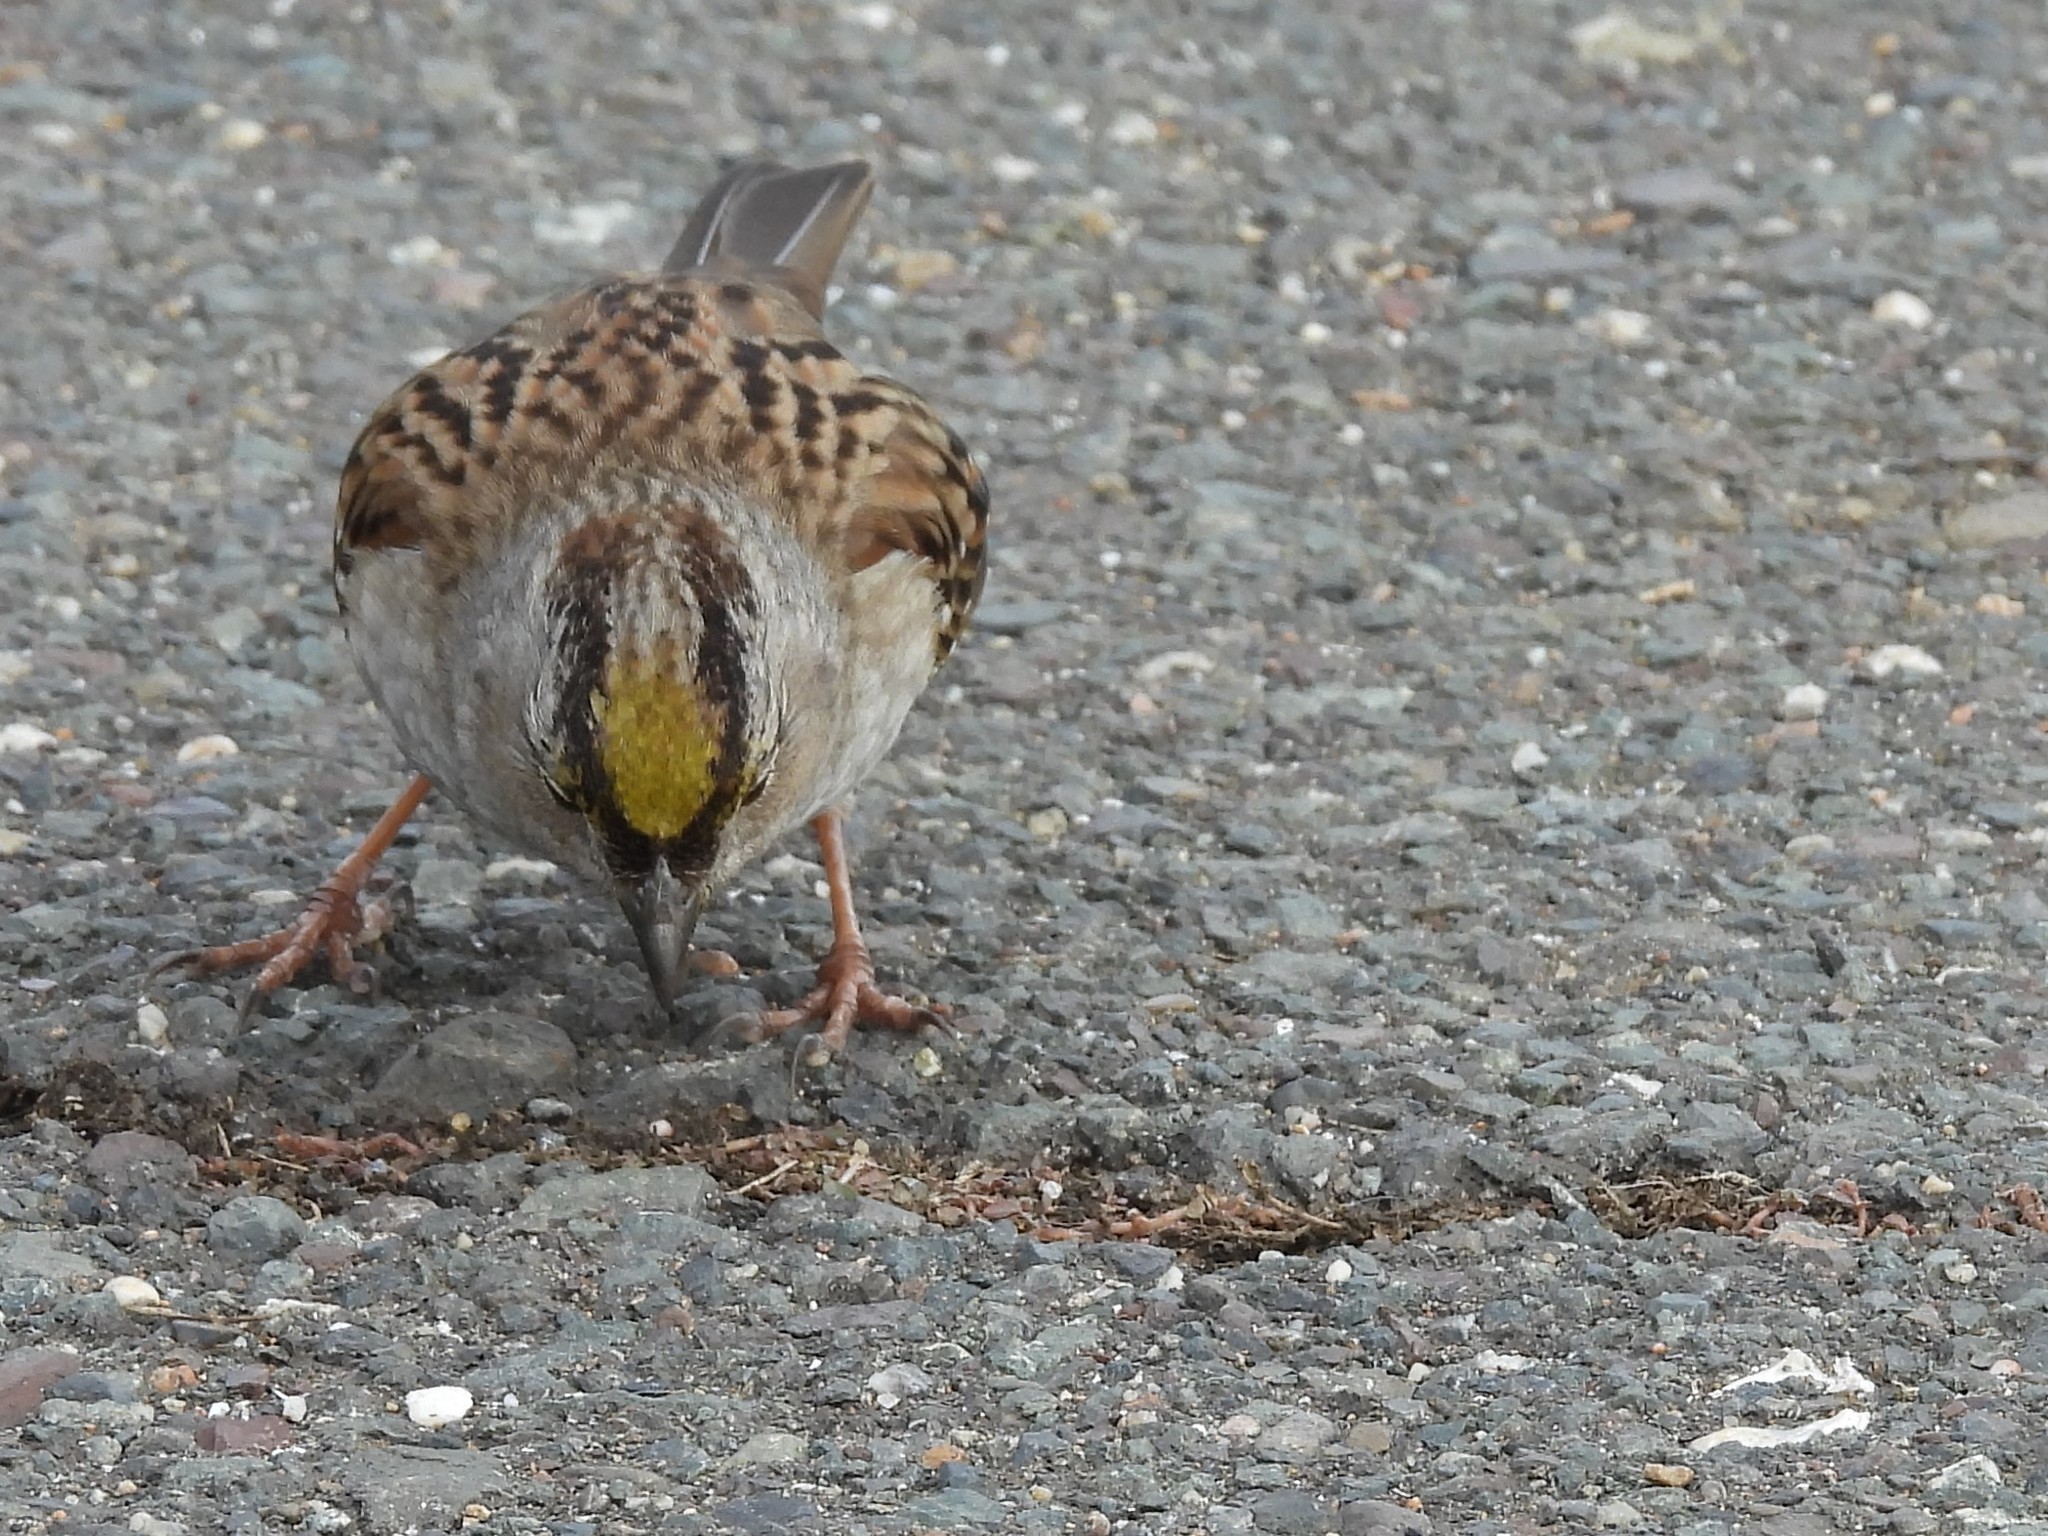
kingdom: Animalia
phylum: Chordata
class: Aves
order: Passeriformes
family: Passerellidae
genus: Zonotrichia
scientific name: Zonotrichia atricapilla
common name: Golden-crowned sparrow
